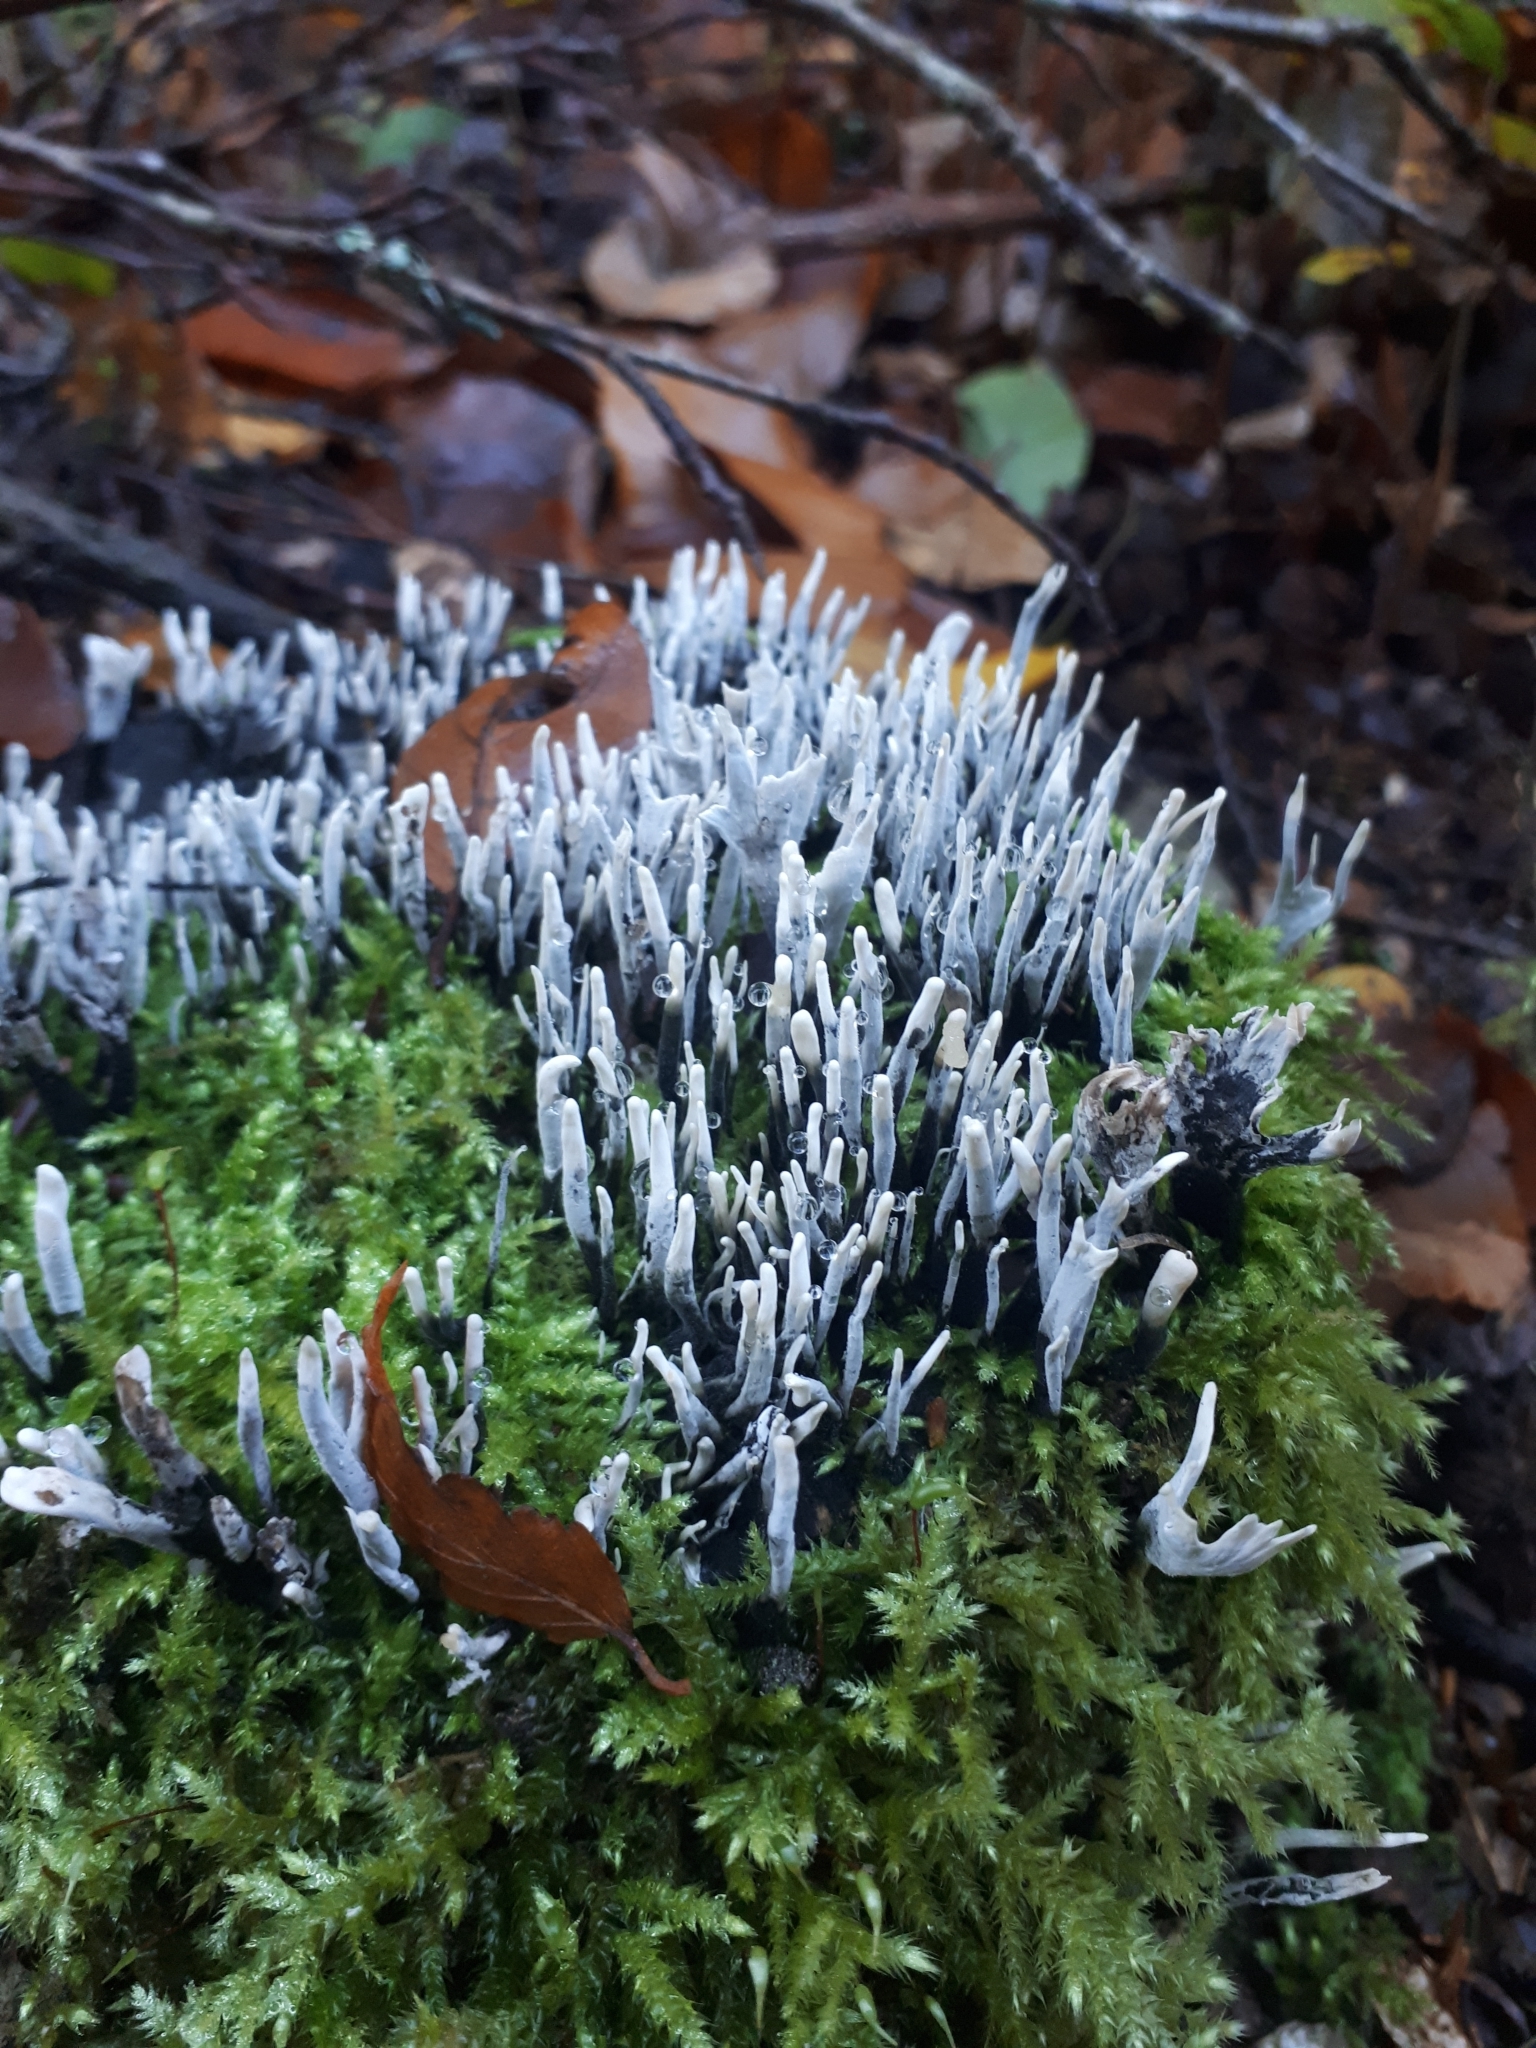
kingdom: Fungi
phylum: Ascomycota
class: Sordariomycetes
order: Xylariales
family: Xylariaceae
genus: Xylaria
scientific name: Xylaria hypoxylon
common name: Candle-snuff fungus
